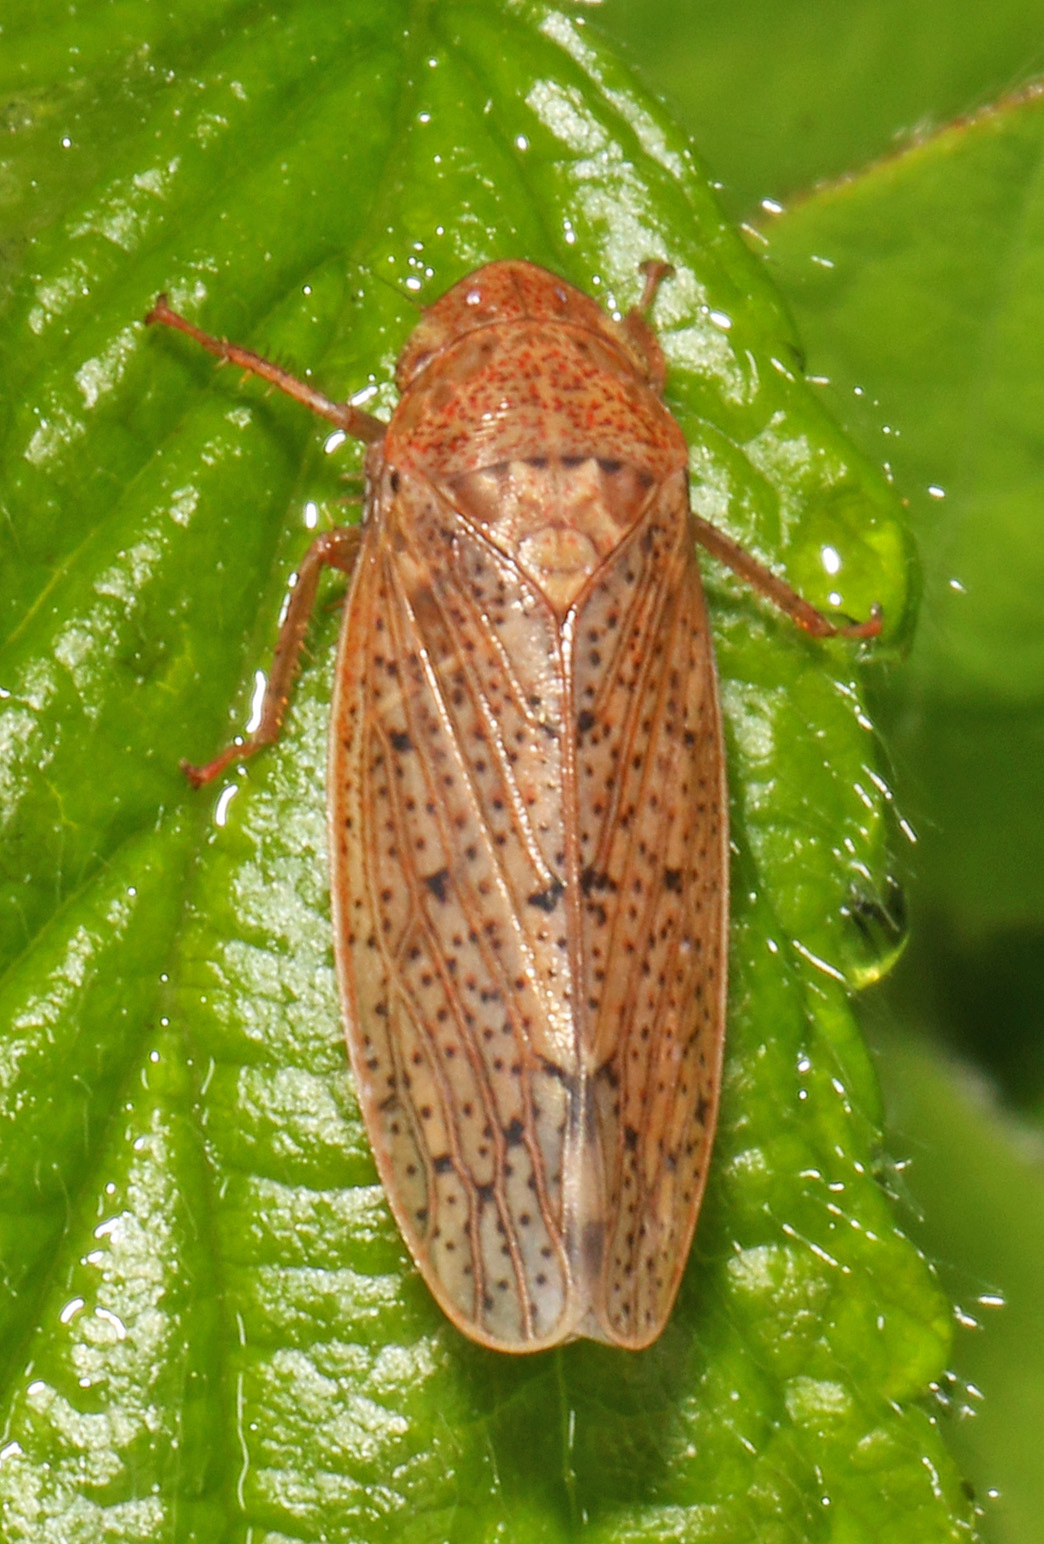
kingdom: Animalia
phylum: Arthropoda
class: Insecta
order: Hemiptera
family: Cicadellidae
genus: Ponana
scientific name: Ponana puncticollis
